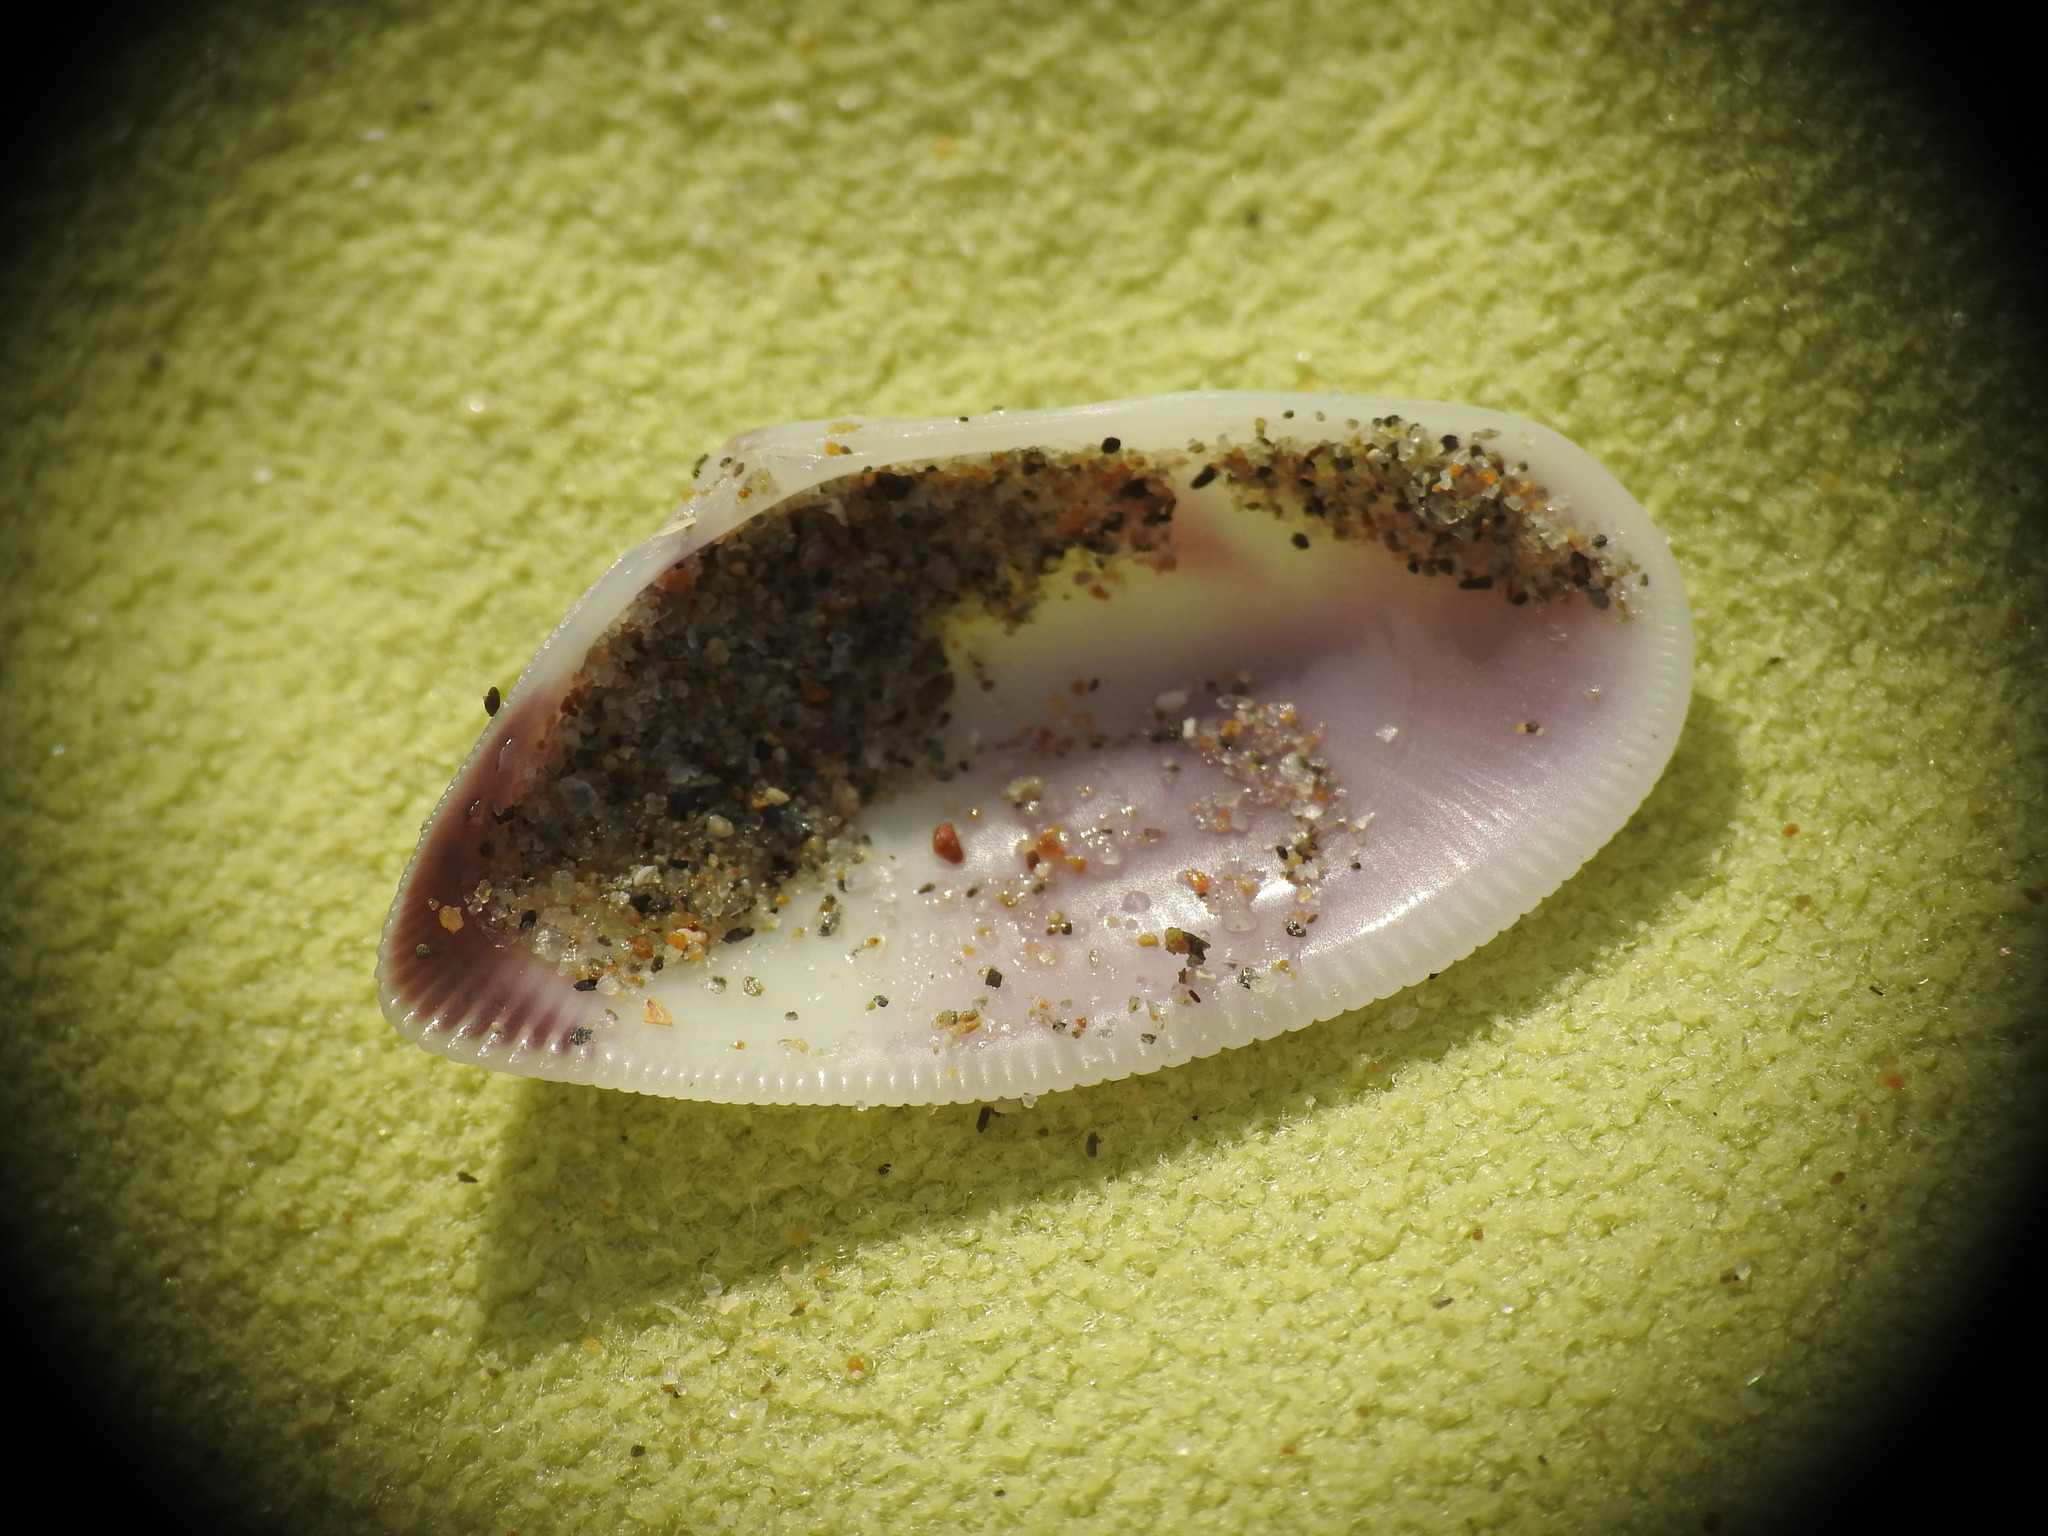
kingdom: Animalia
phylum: Mollusca
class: Bivalvia
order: Cardiida
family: Donacidae
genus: Donax
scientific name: Donax vittatus
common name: Banded wedge-shell
